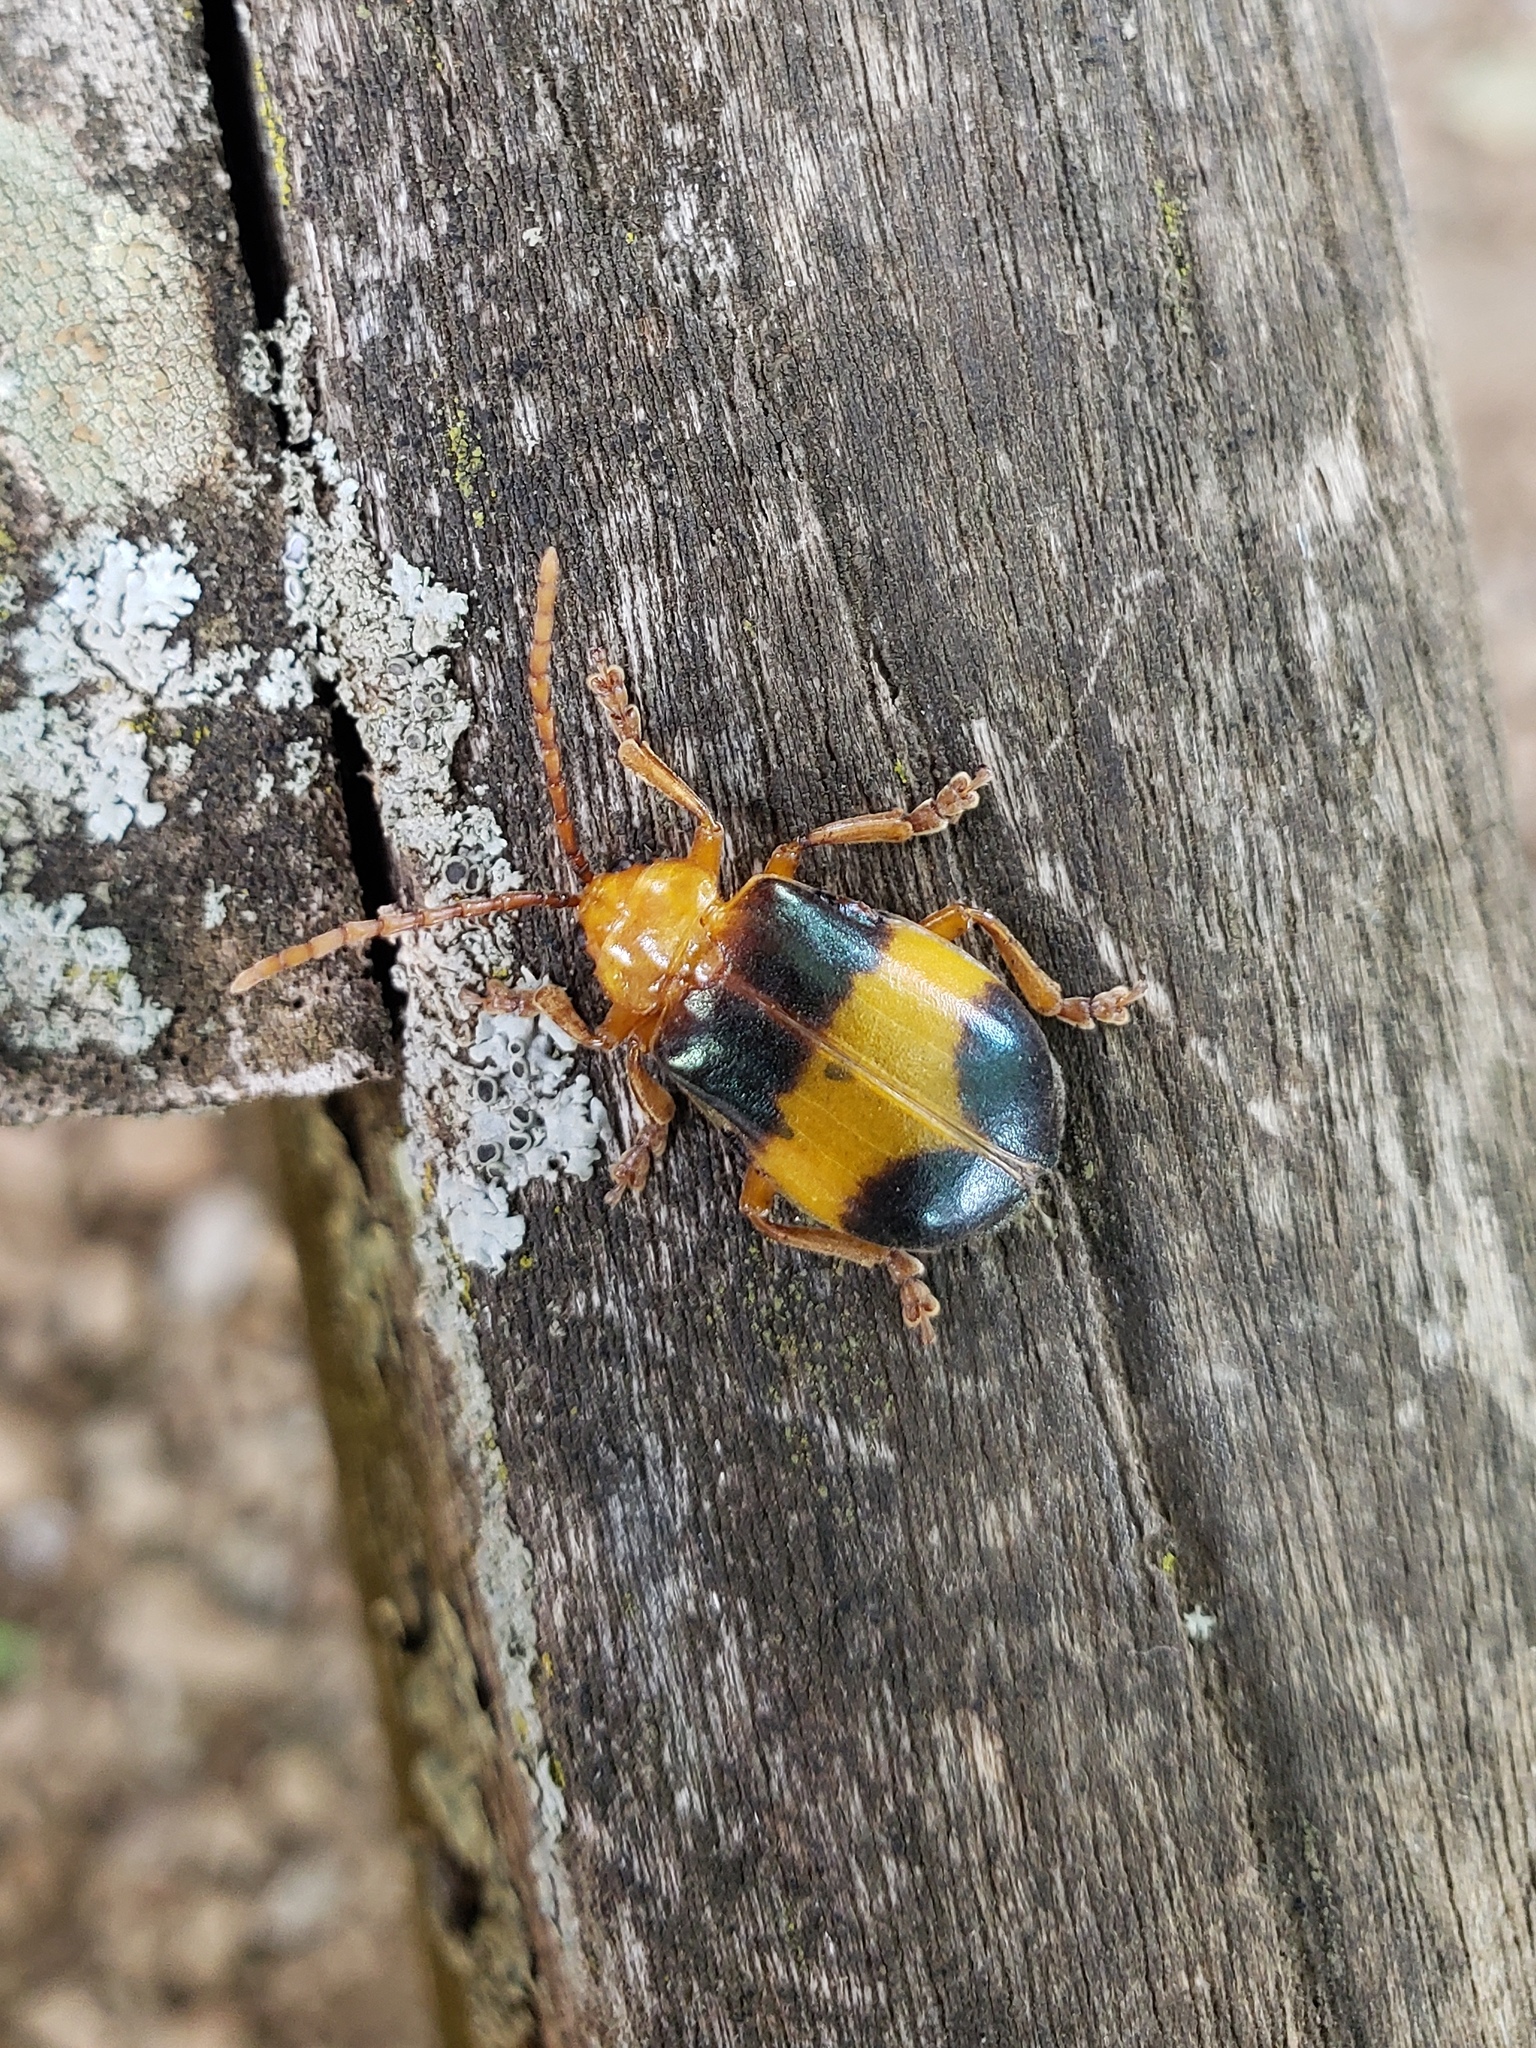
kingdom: Animalia
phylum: Arthropoda
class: Insecta
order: Coleoptera
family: Chrysomelidae
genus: Monocesta
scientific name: Monocesta coryli
